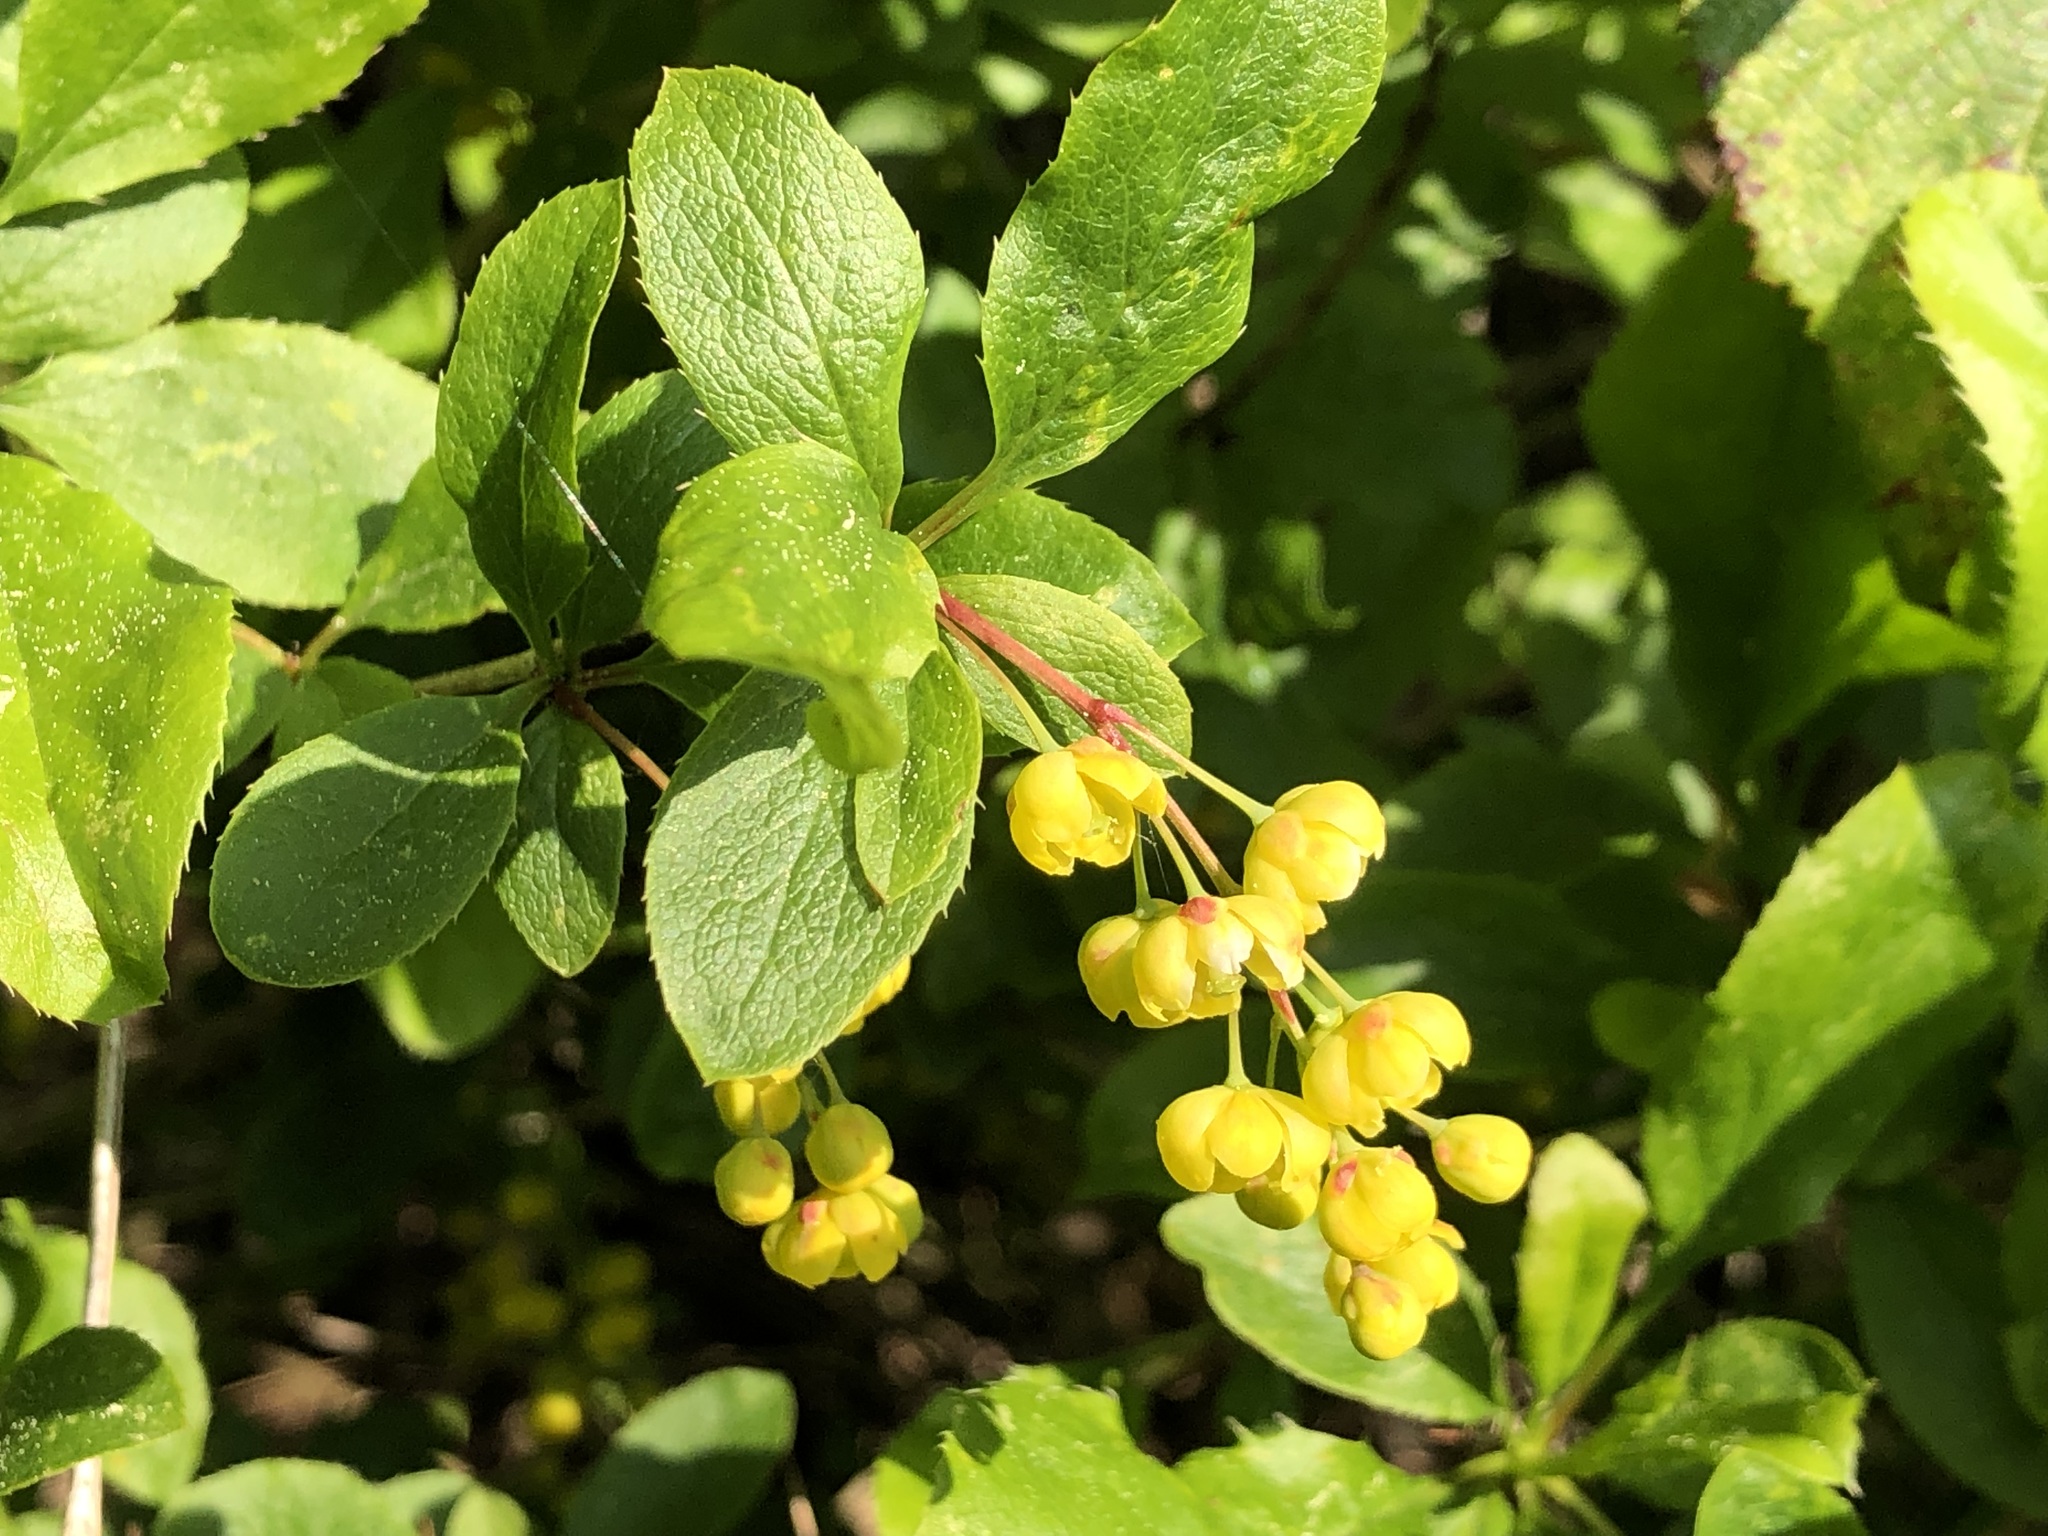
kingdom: Plantae
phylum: Tracheophyta
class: Magnoliopsida
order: Ranunculales
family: Berberidaceae
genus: Berberis
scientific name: Berberis vulgaris
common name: Barberry
